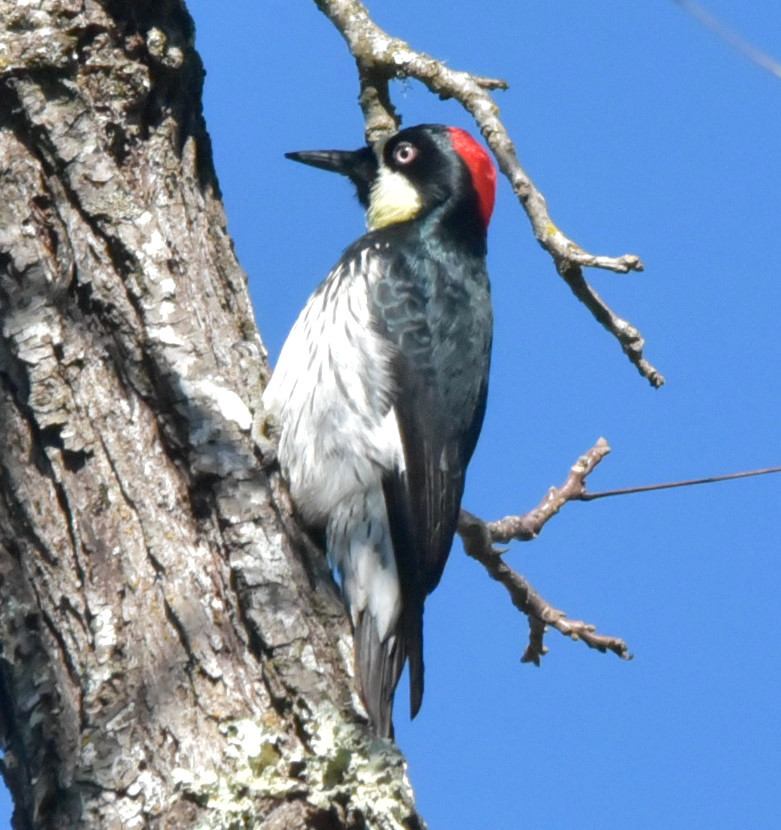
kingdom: Animalia
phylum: Chordata
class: Aves
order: Piciformes
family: Picidae
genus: Melanerpes
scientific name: Melanerpes formicivorus
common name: Acorn woodpecker
